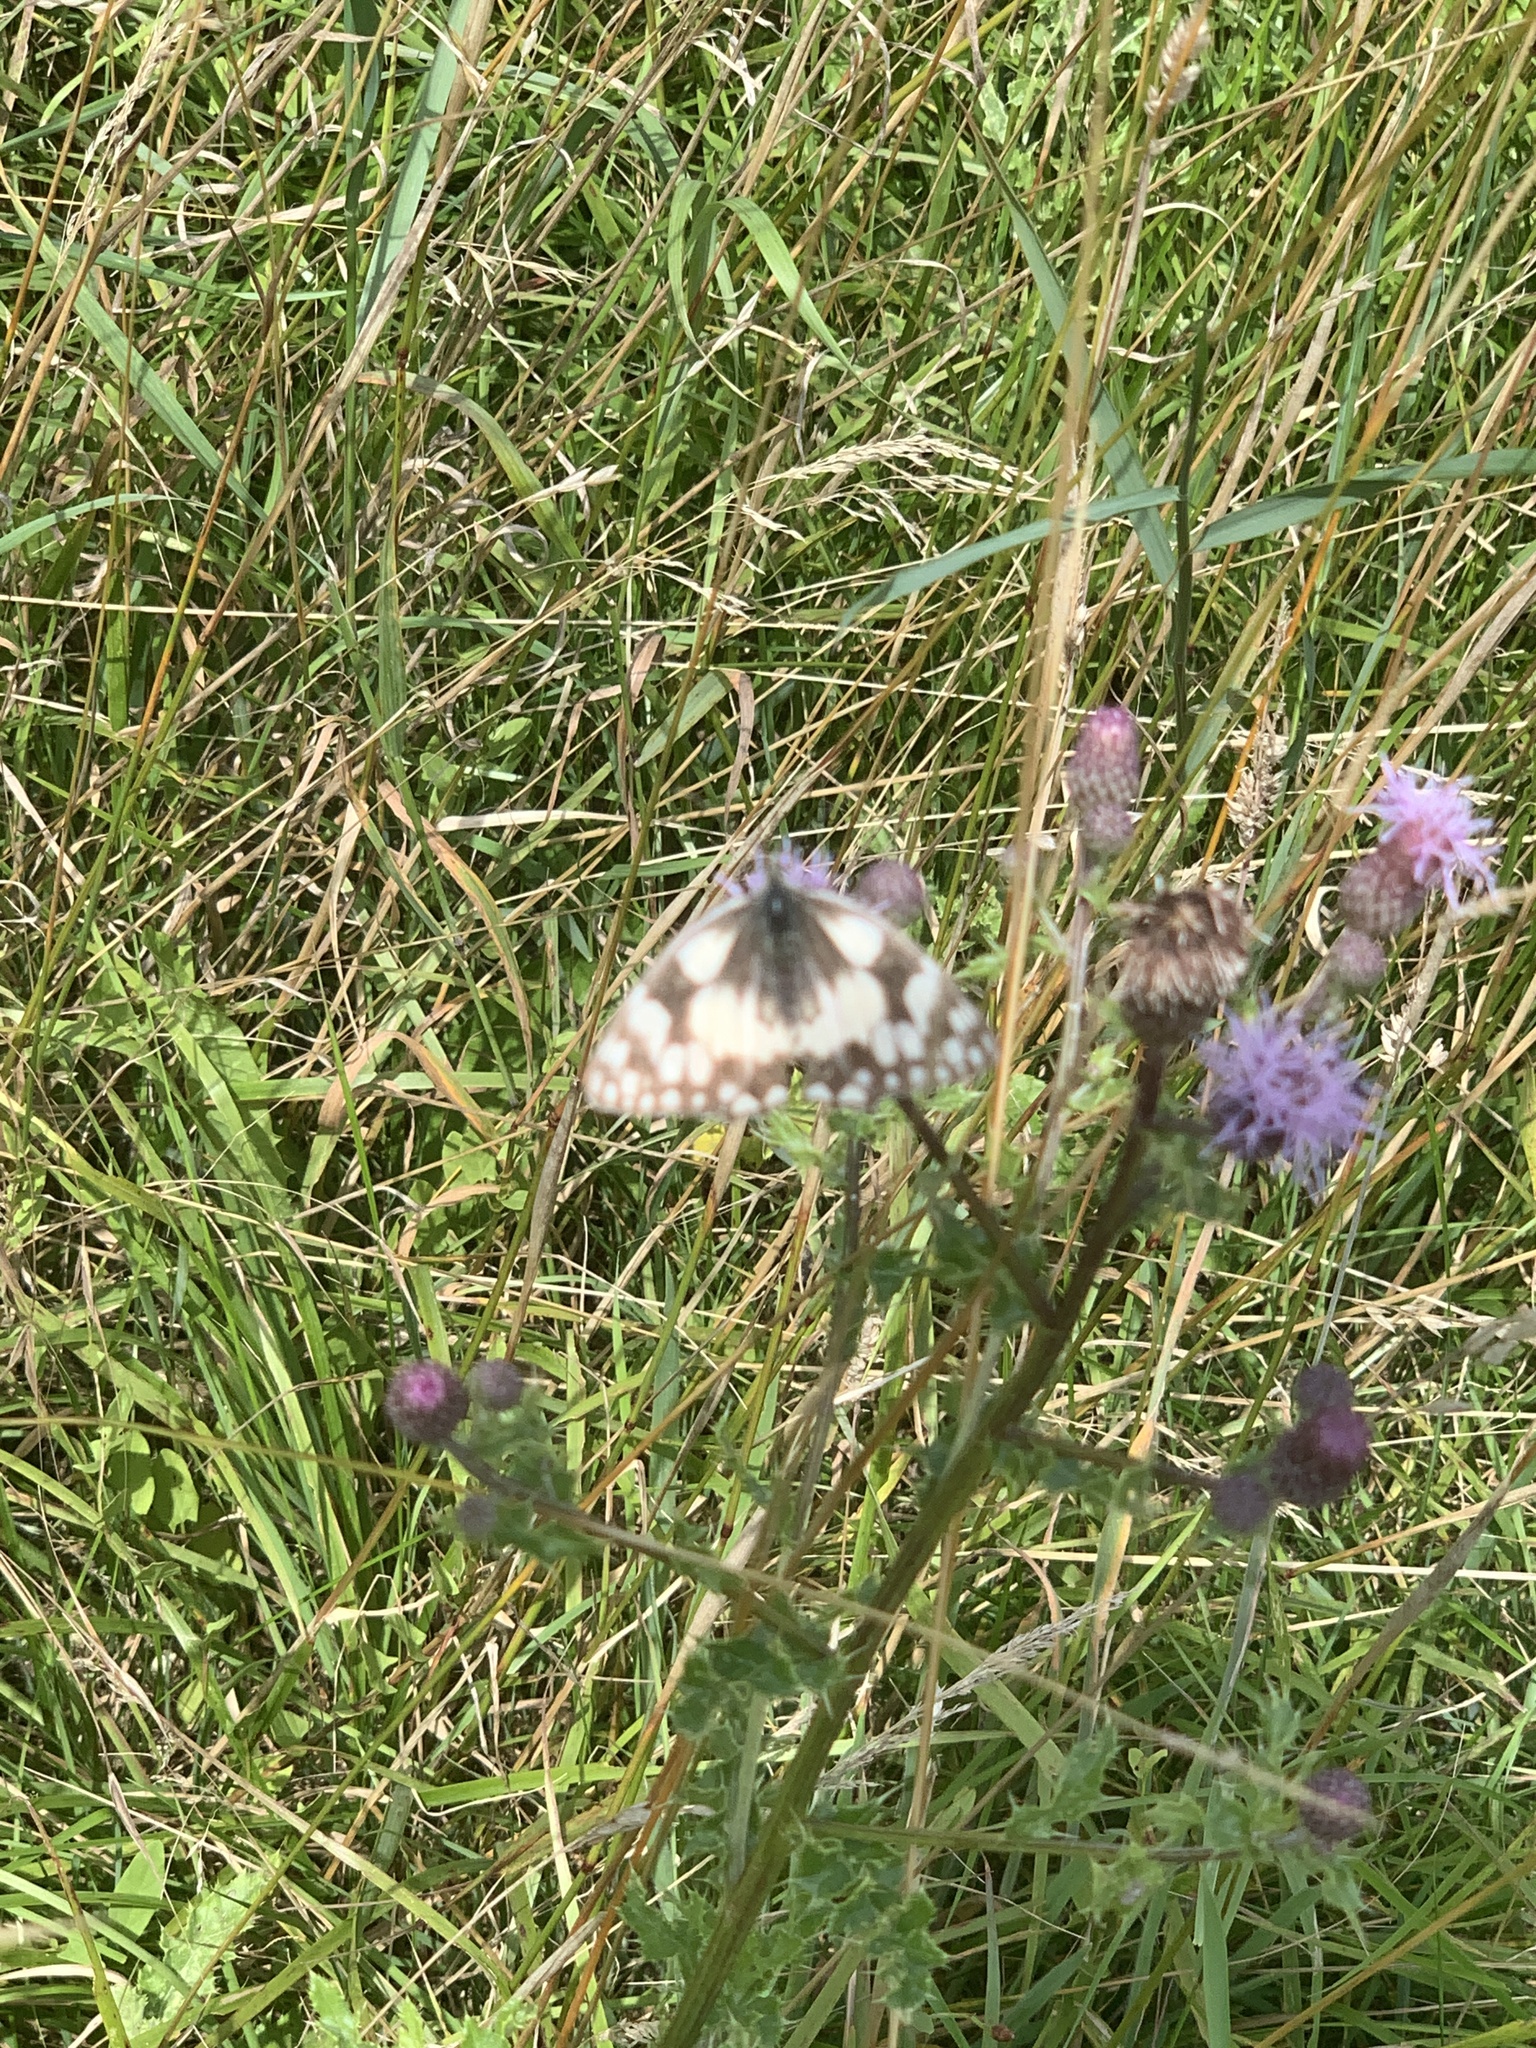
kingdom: Animalia
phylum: Arthropoda
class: Insecta
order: Lepidoptera
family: Nymphalidae
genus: Melanargia
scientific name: Melanargia galathea
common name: Marbled white
